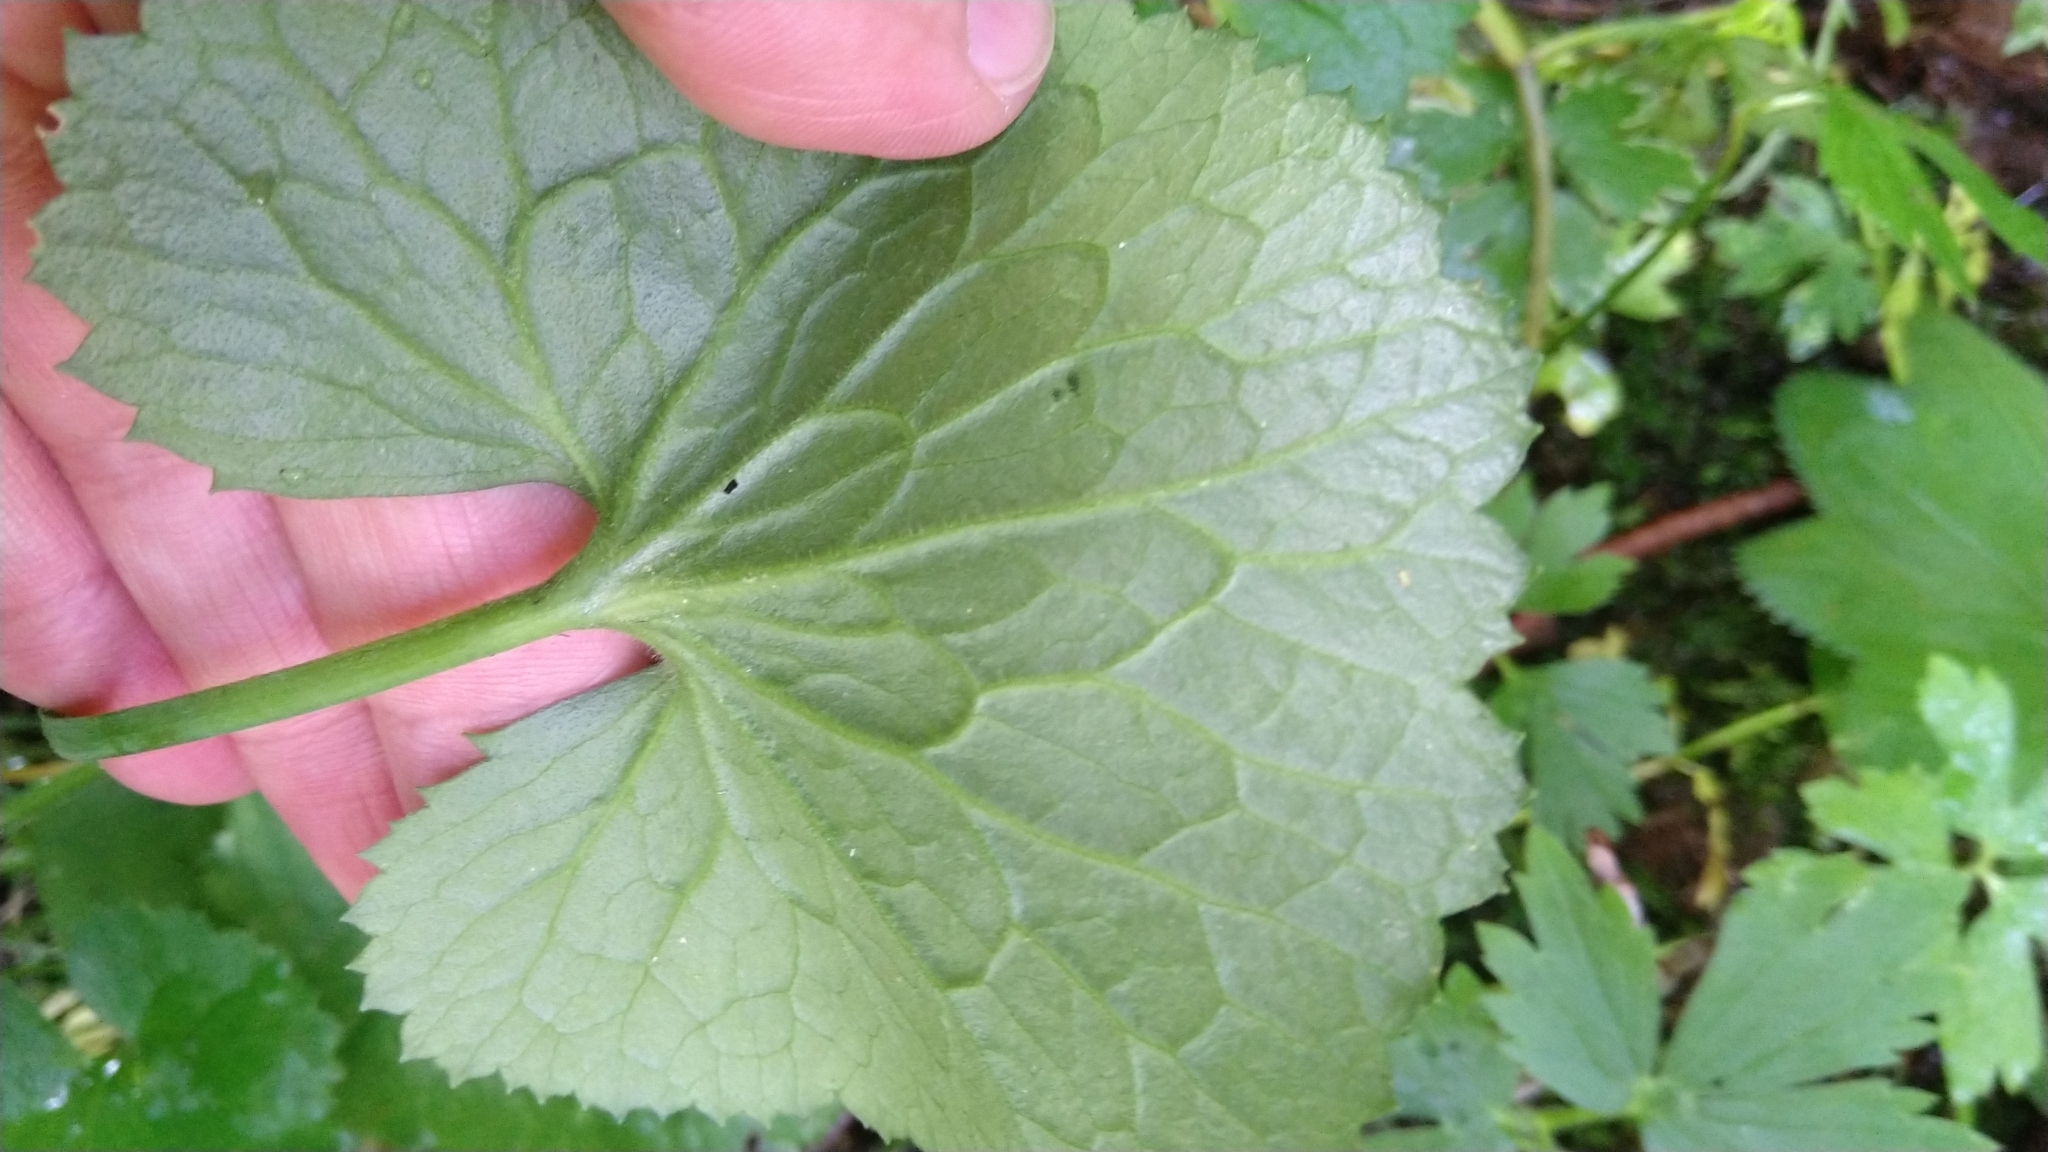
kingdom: Plantae
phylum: Tracheophyta
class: Magnoliopsida
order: Ranunculales
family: Ranunculaceae
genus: Caltha
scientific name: Caltha palustris
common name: Marsh marigold
